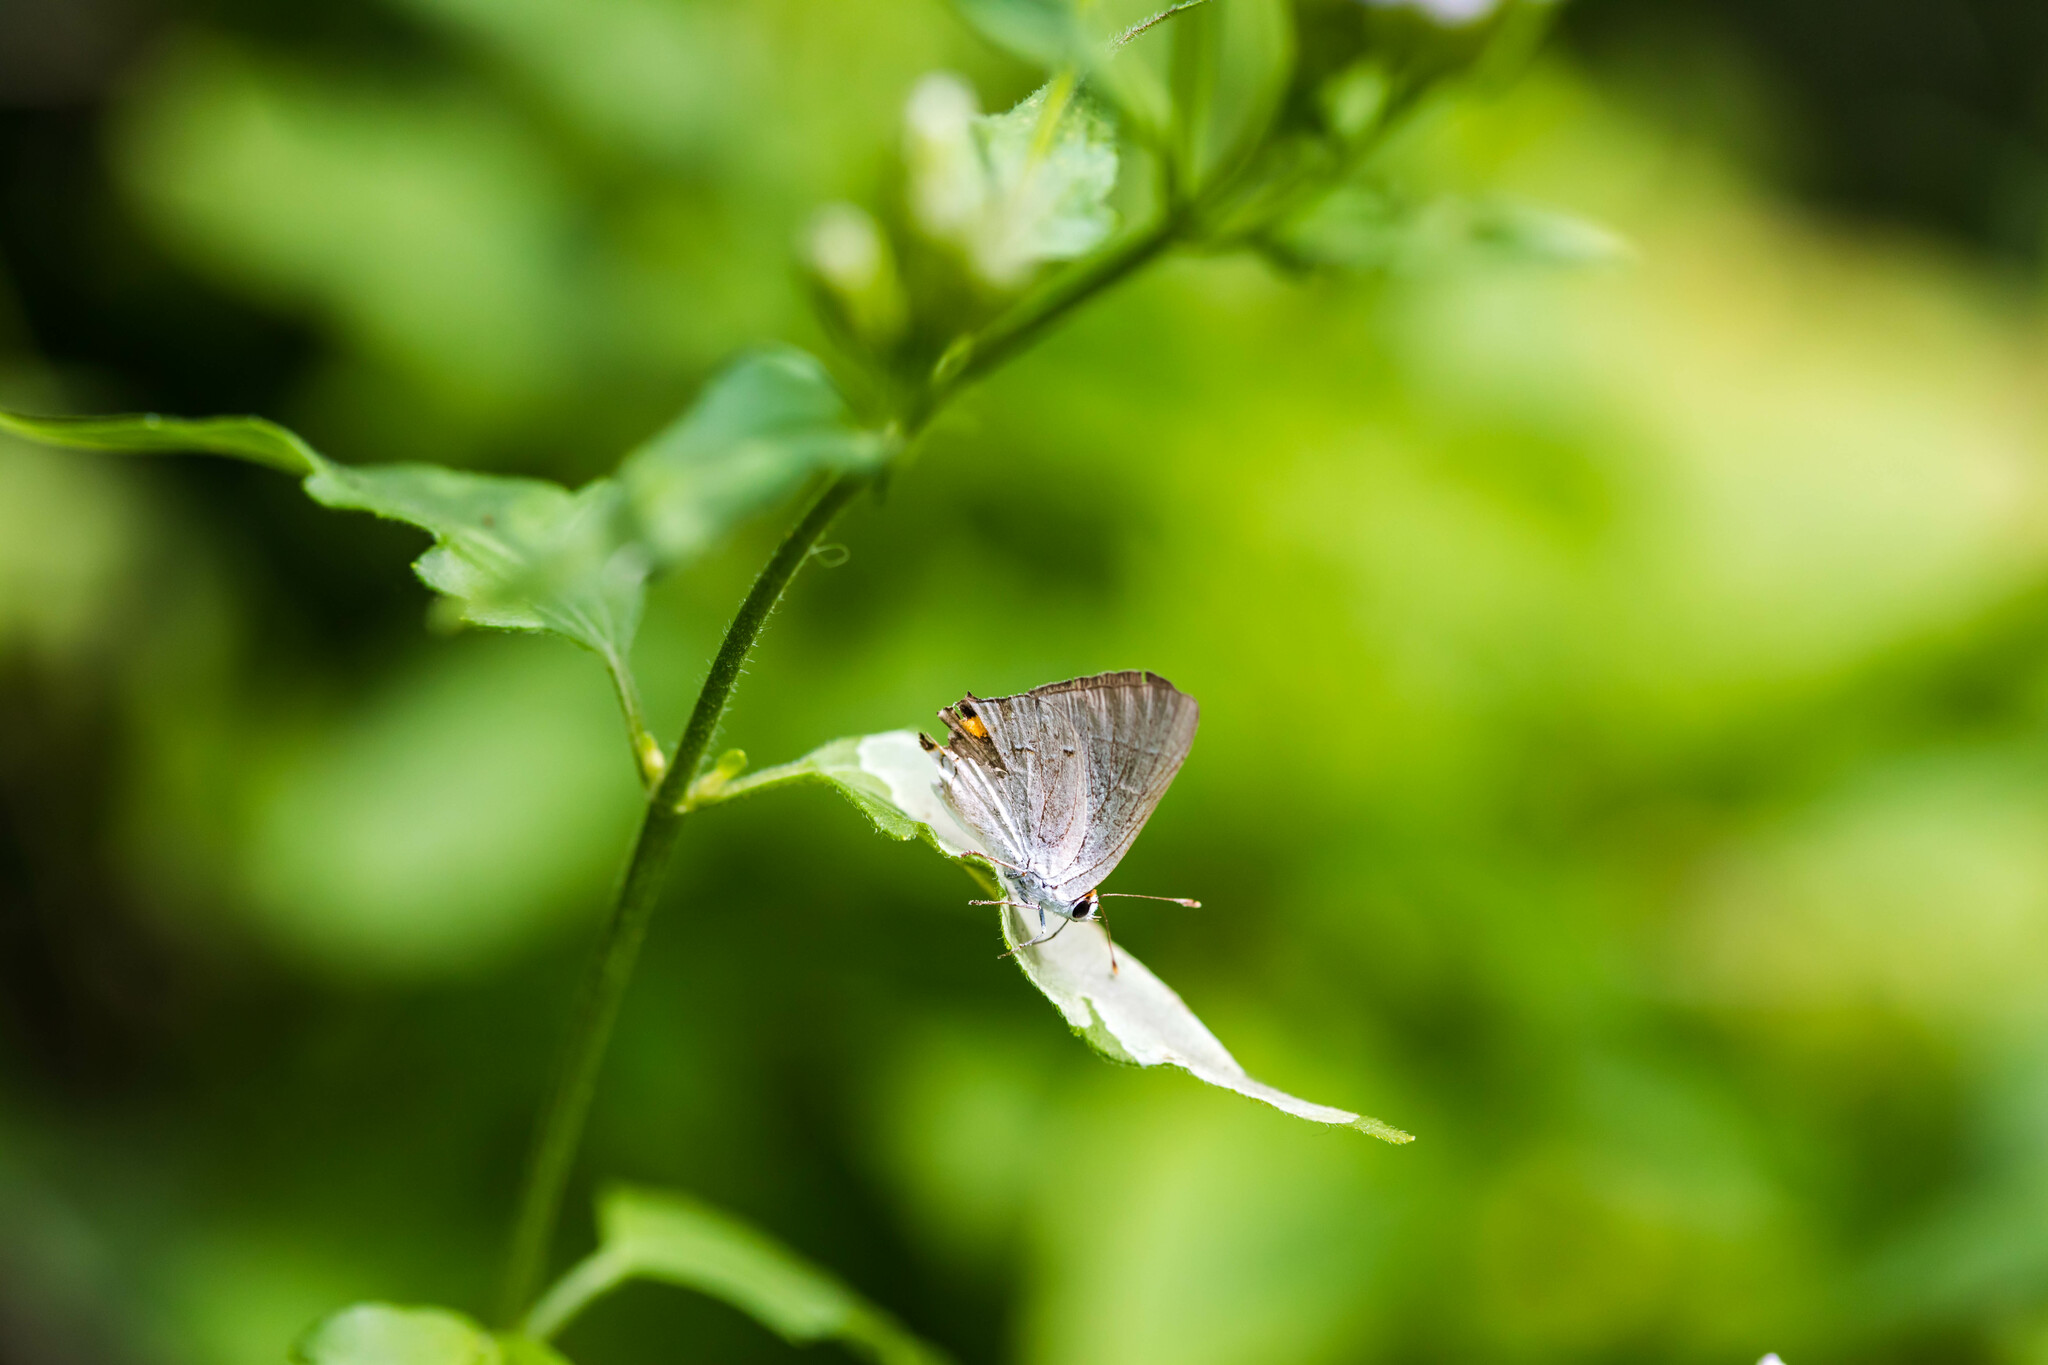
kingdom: Animalia
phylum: Arthropoda
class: Insecta
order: Lepidoptera
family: Lycaenidae
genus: Strymon
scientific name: Strymon melinus
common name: Gray hairstreak
